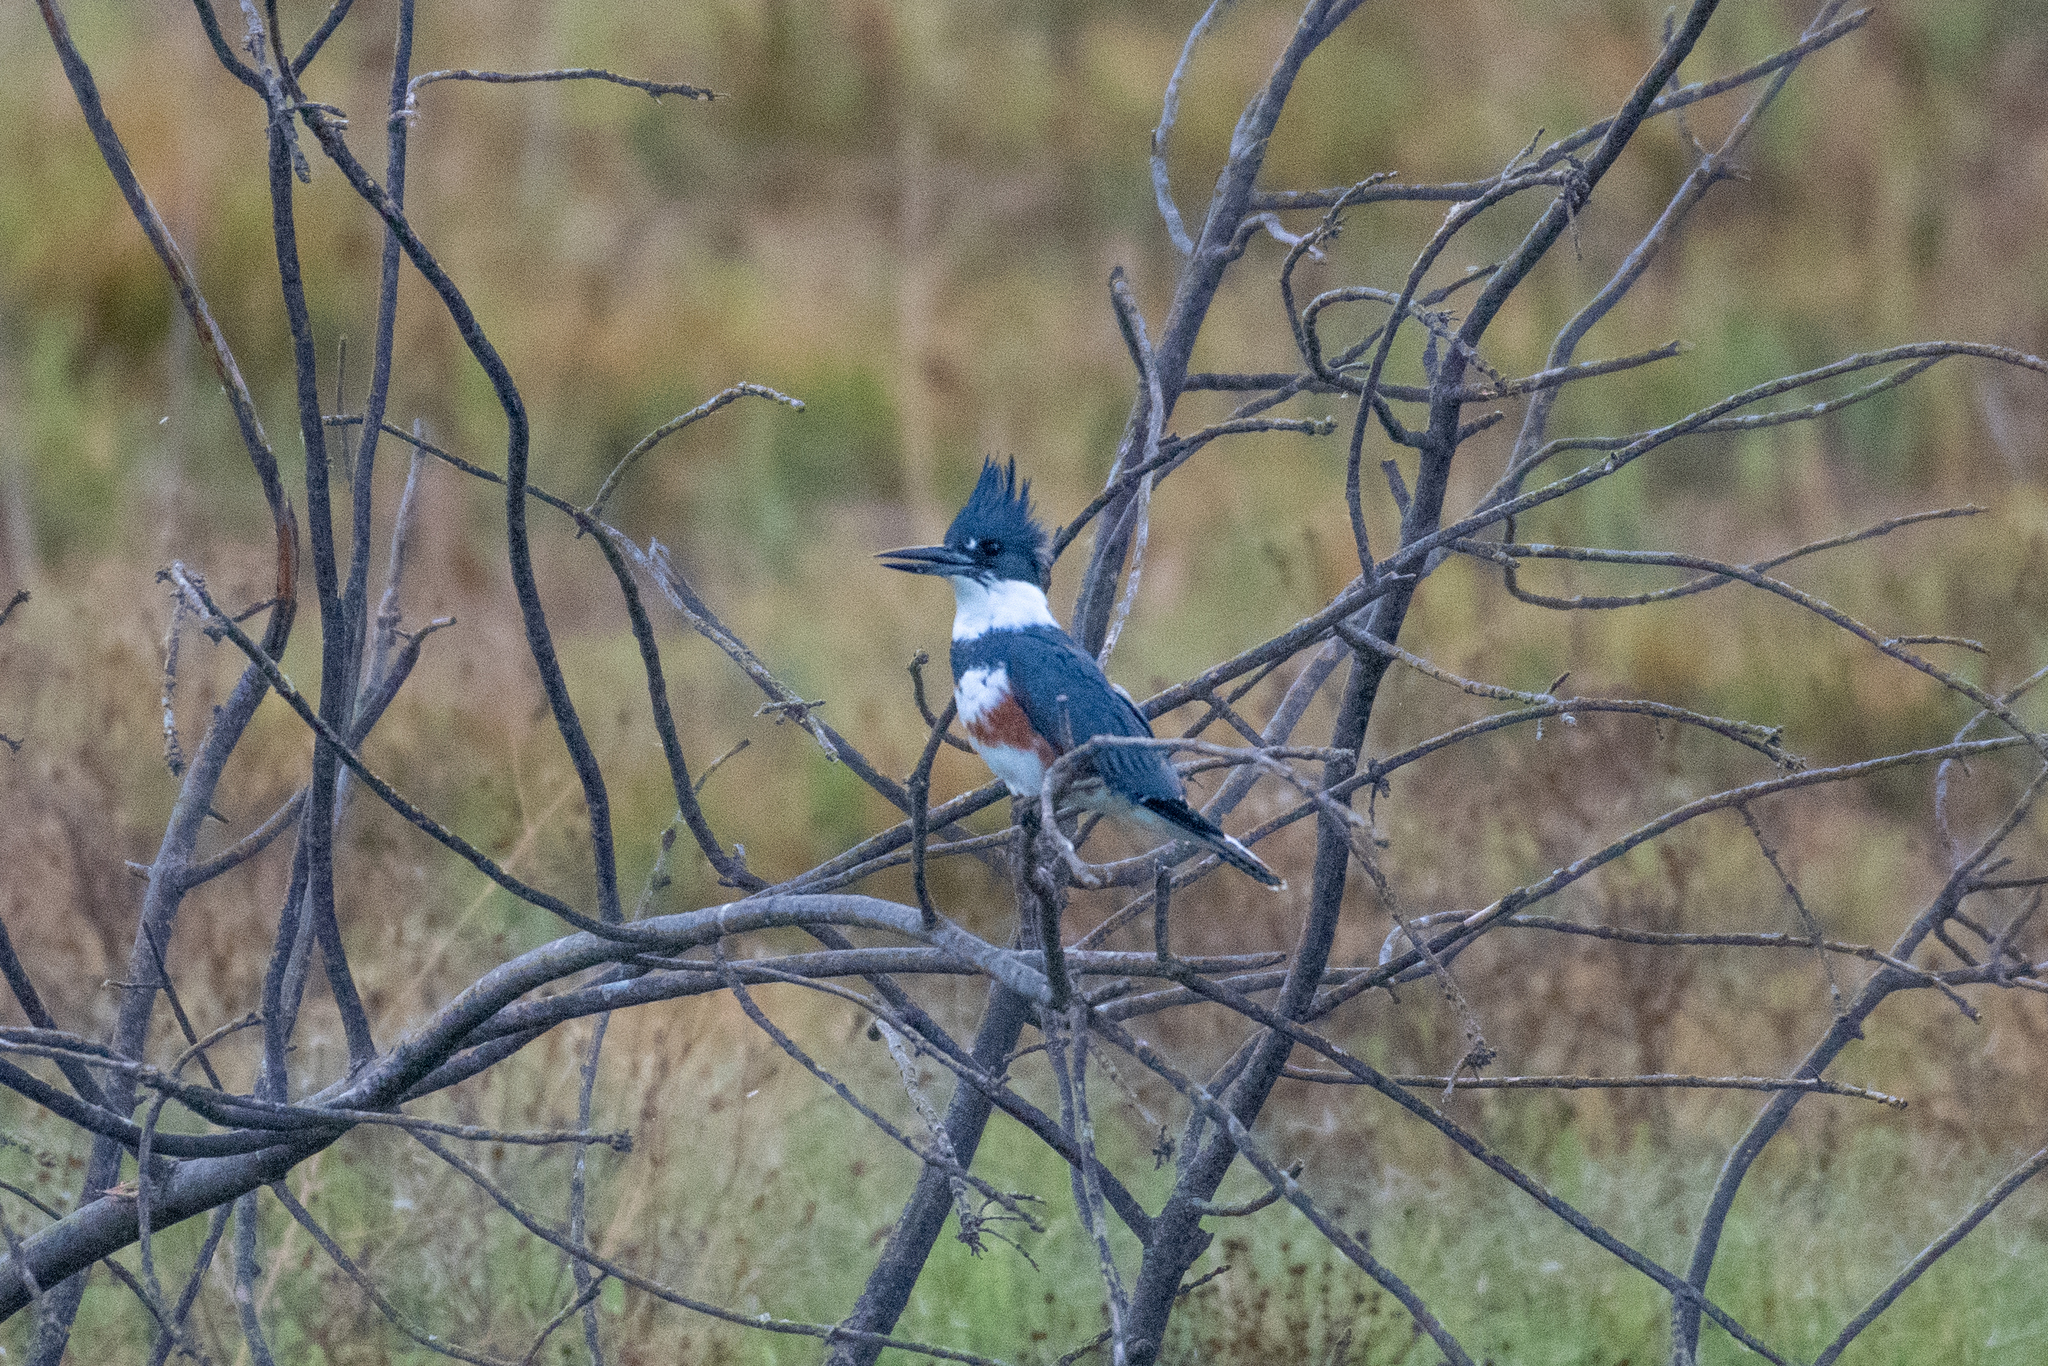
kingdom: Animalia
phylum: Chordata
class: Aves
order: Coraciiformes
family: Alcedinidae
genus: Megaceryle
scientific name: Megaceryle alcyon
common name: Belted kingfisher
